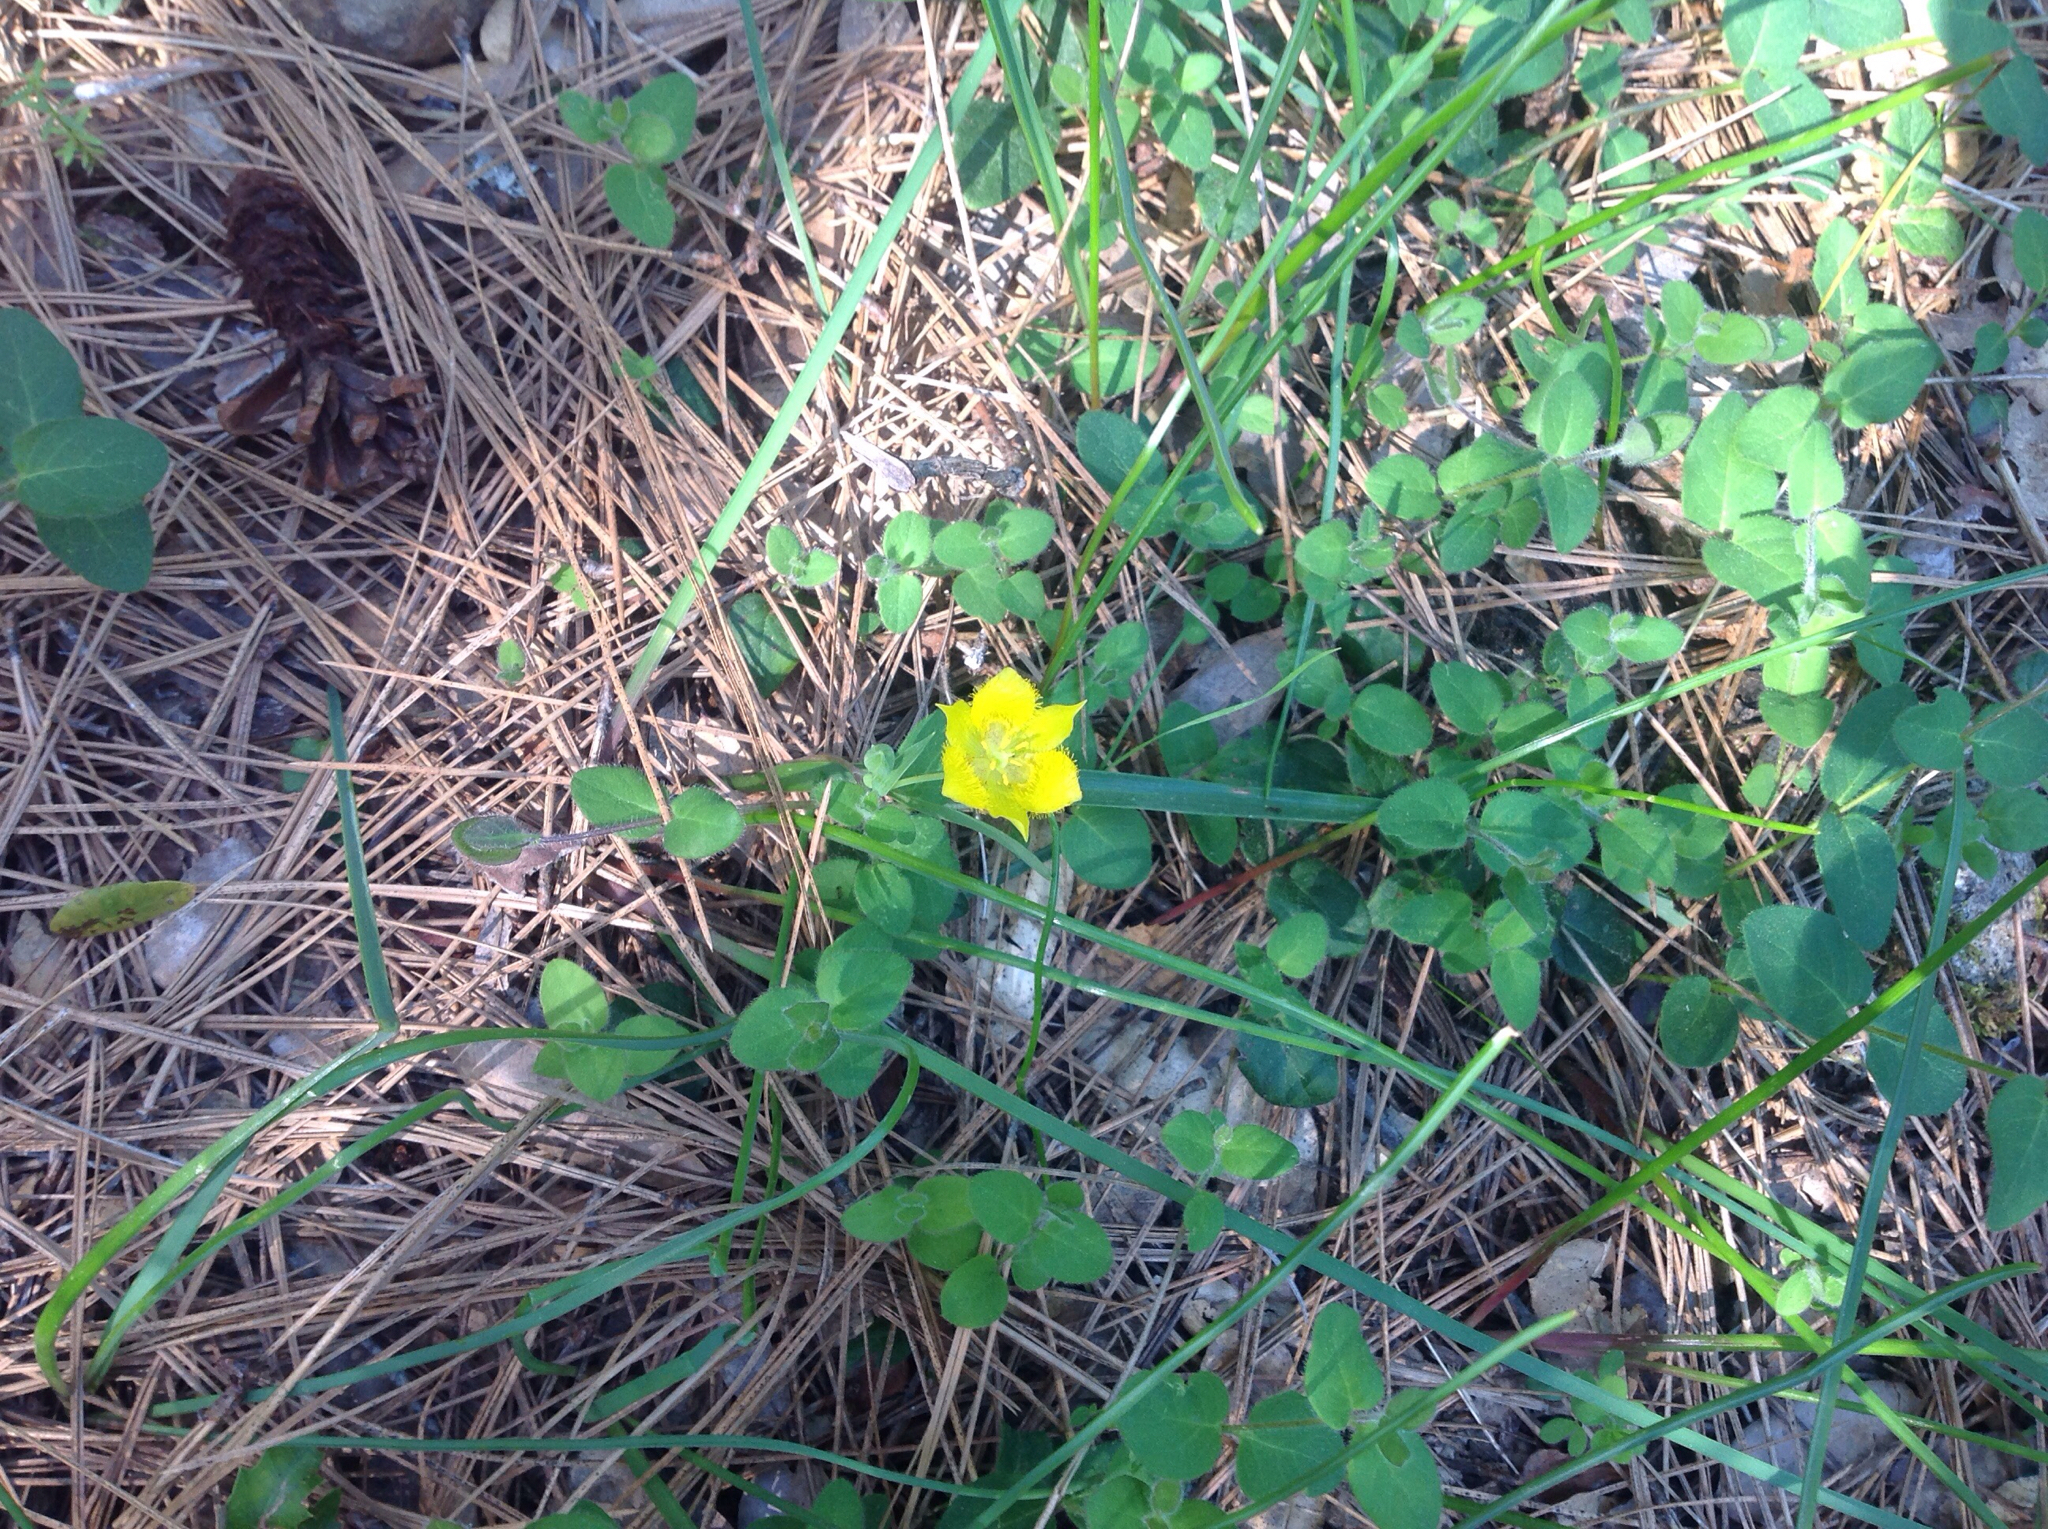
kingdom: Plantae
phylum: Tracheophyta
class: Liliopsida
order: Liliales
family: Liliaceae
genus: Calochortus
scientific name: Calochortus monophyllus
